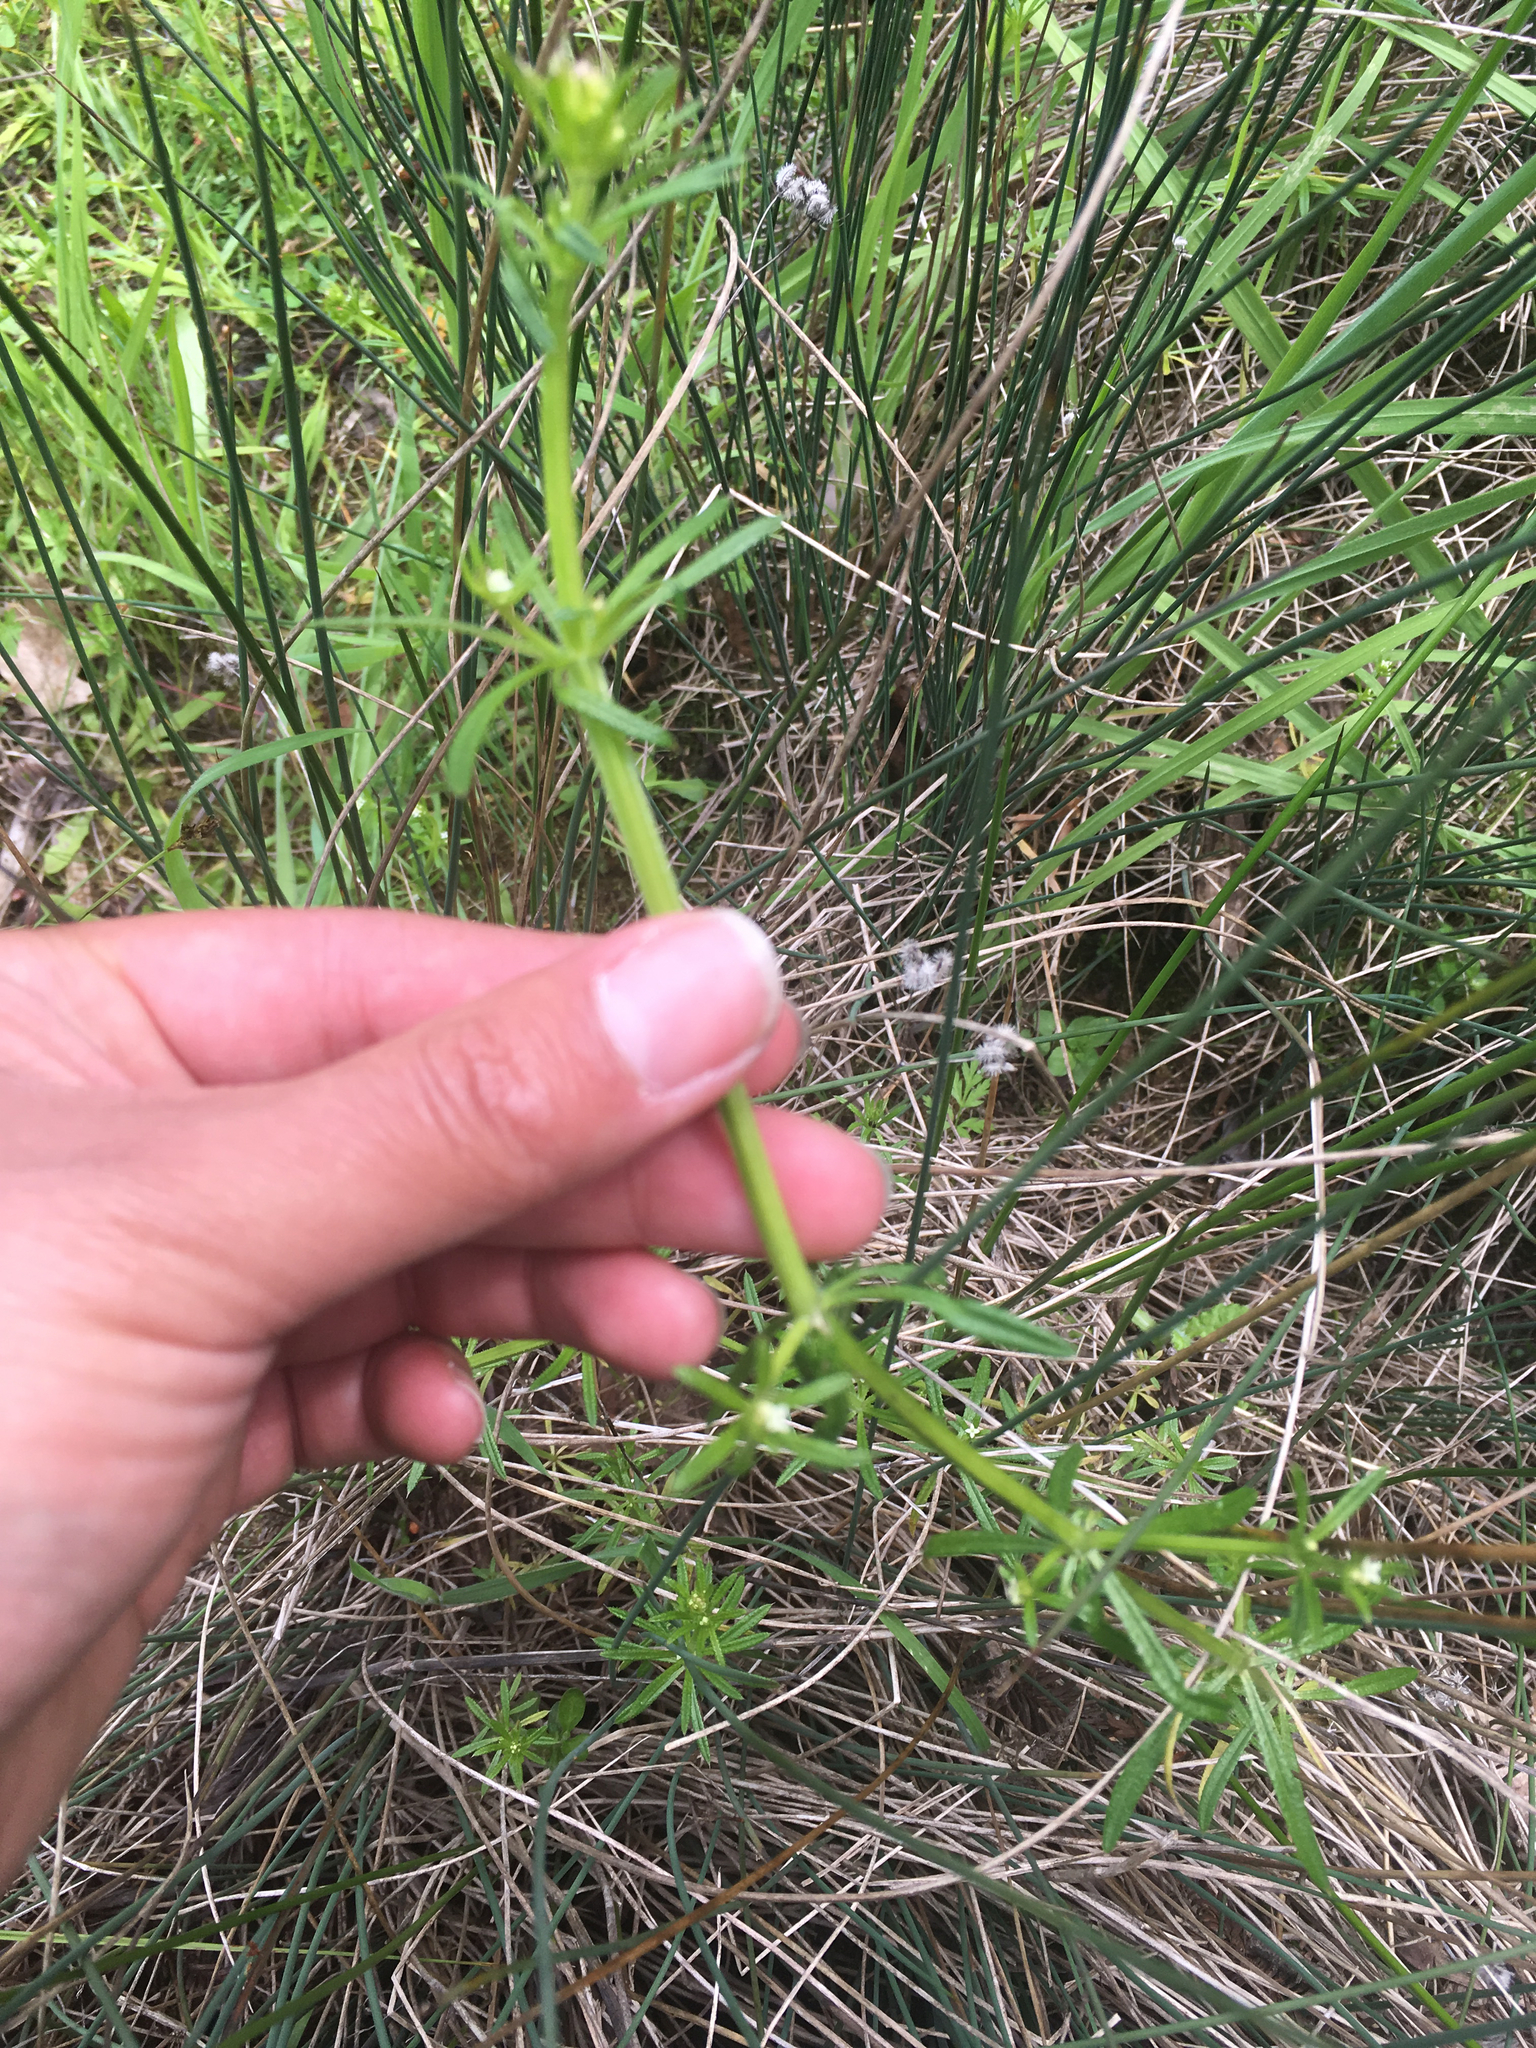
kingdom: Plantae
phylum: Tracheophyta
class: Magnoliopsida
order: Gentianales
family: Rubiaceae
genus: Galium
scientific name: Galium aparine
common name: Cleavers
